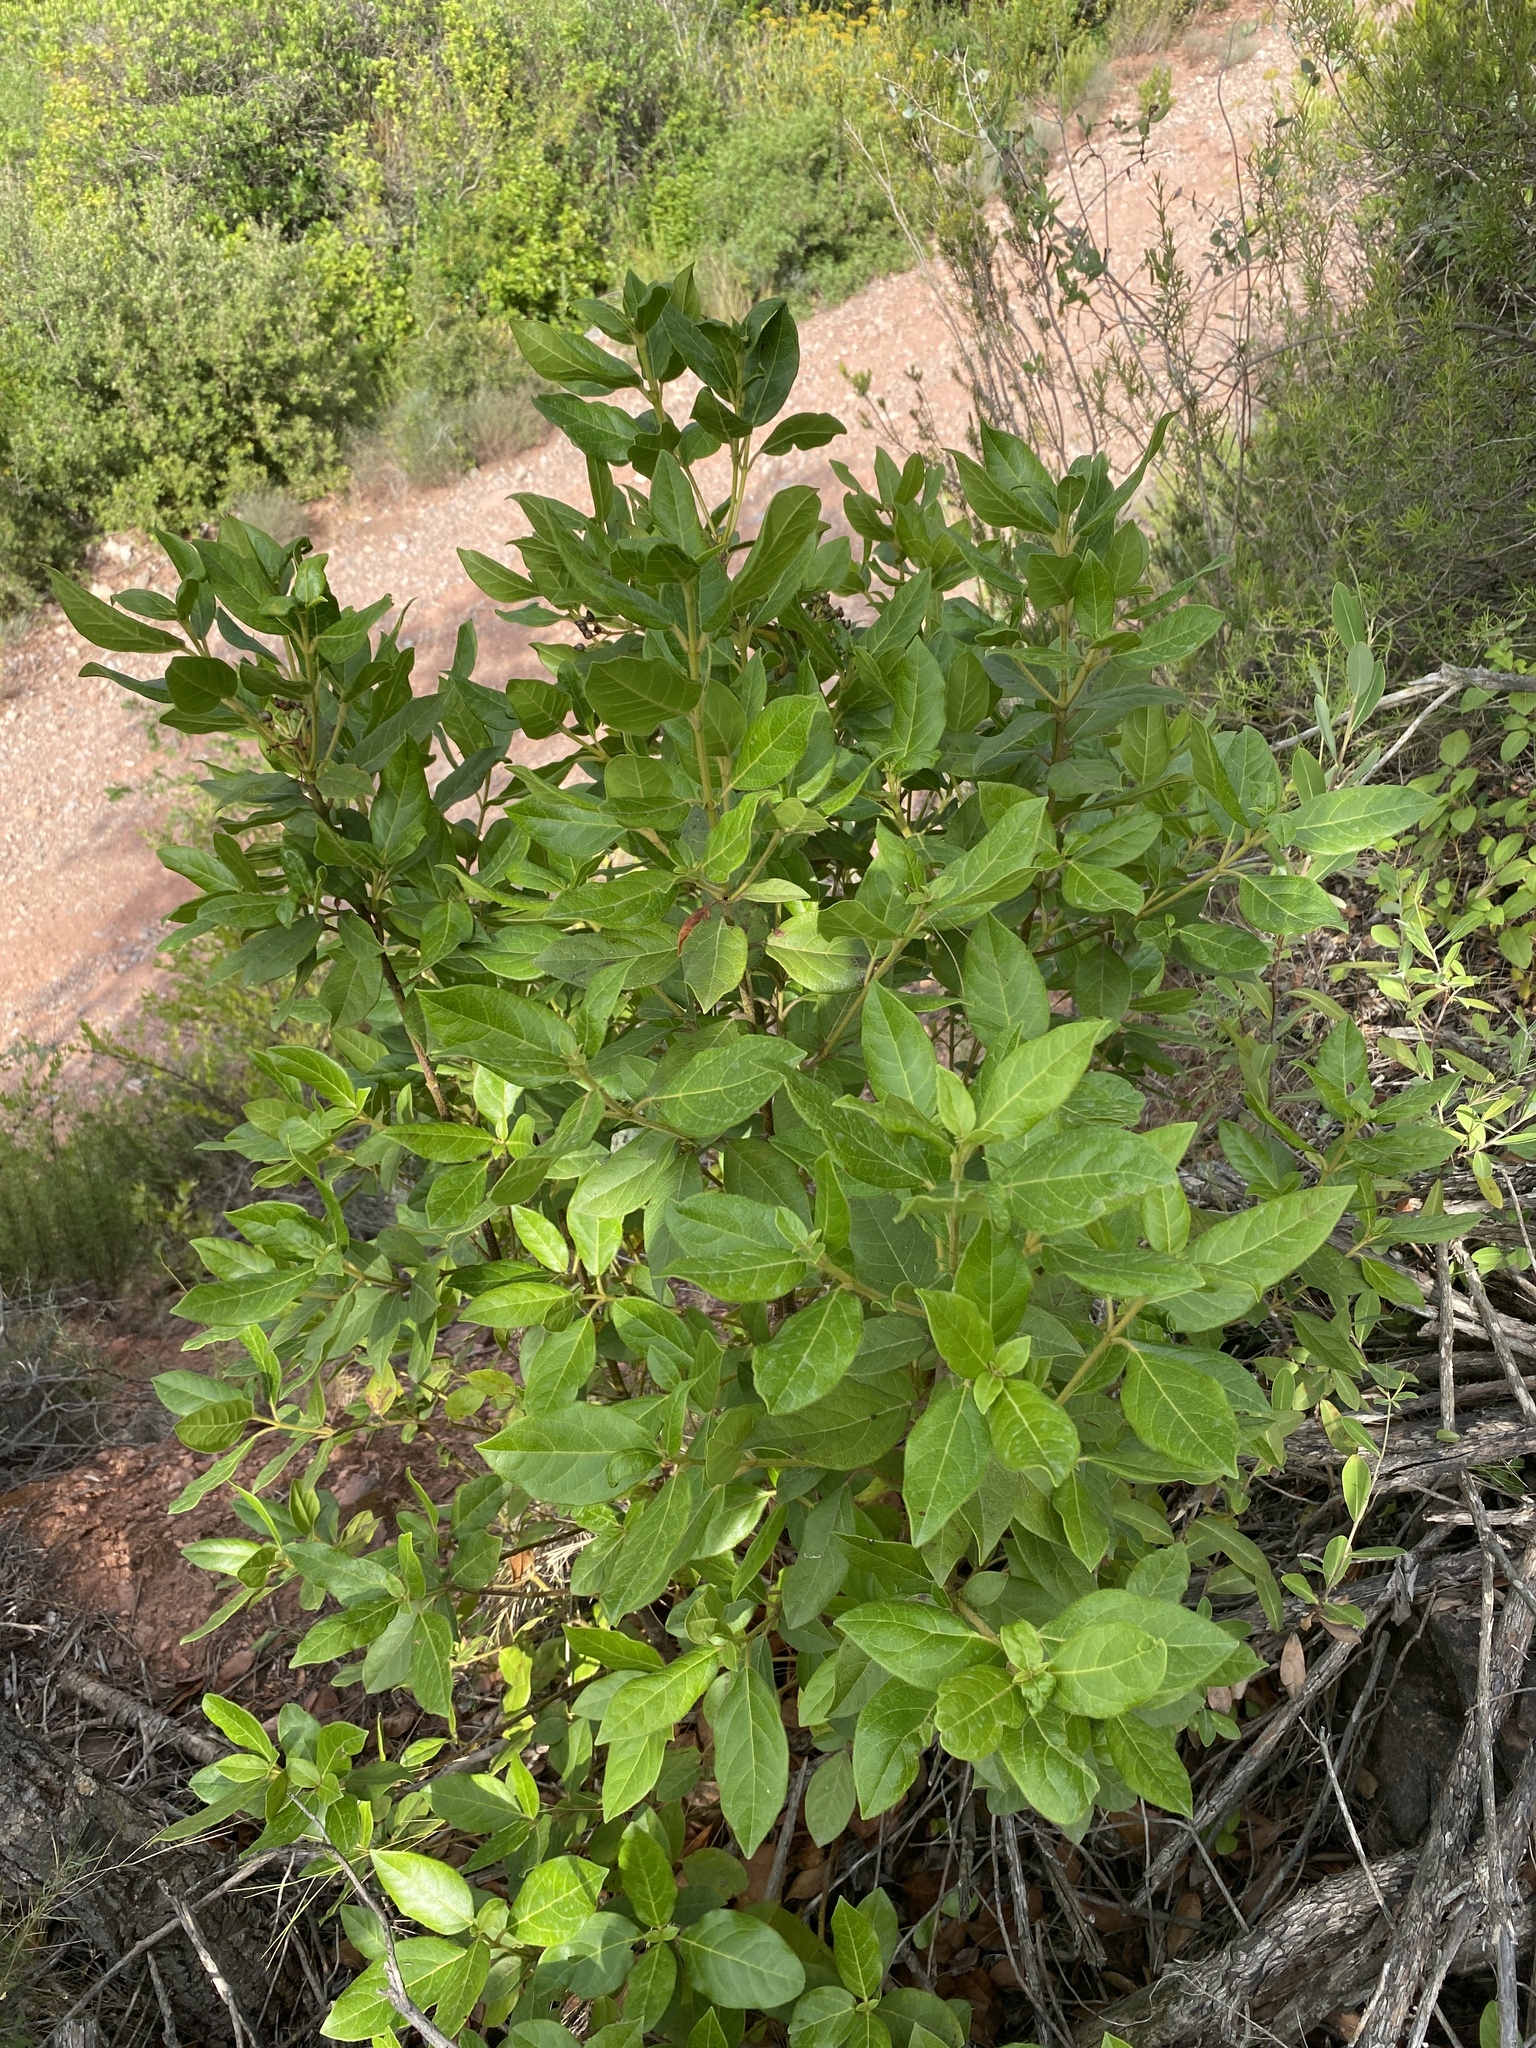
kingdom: Plantae
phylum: Tracheophyta
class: Magnoliopsida
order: Dipsacales
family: Viburnaceae
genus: Viburnum
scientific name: Viburnum tinus
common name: Laurustinus
